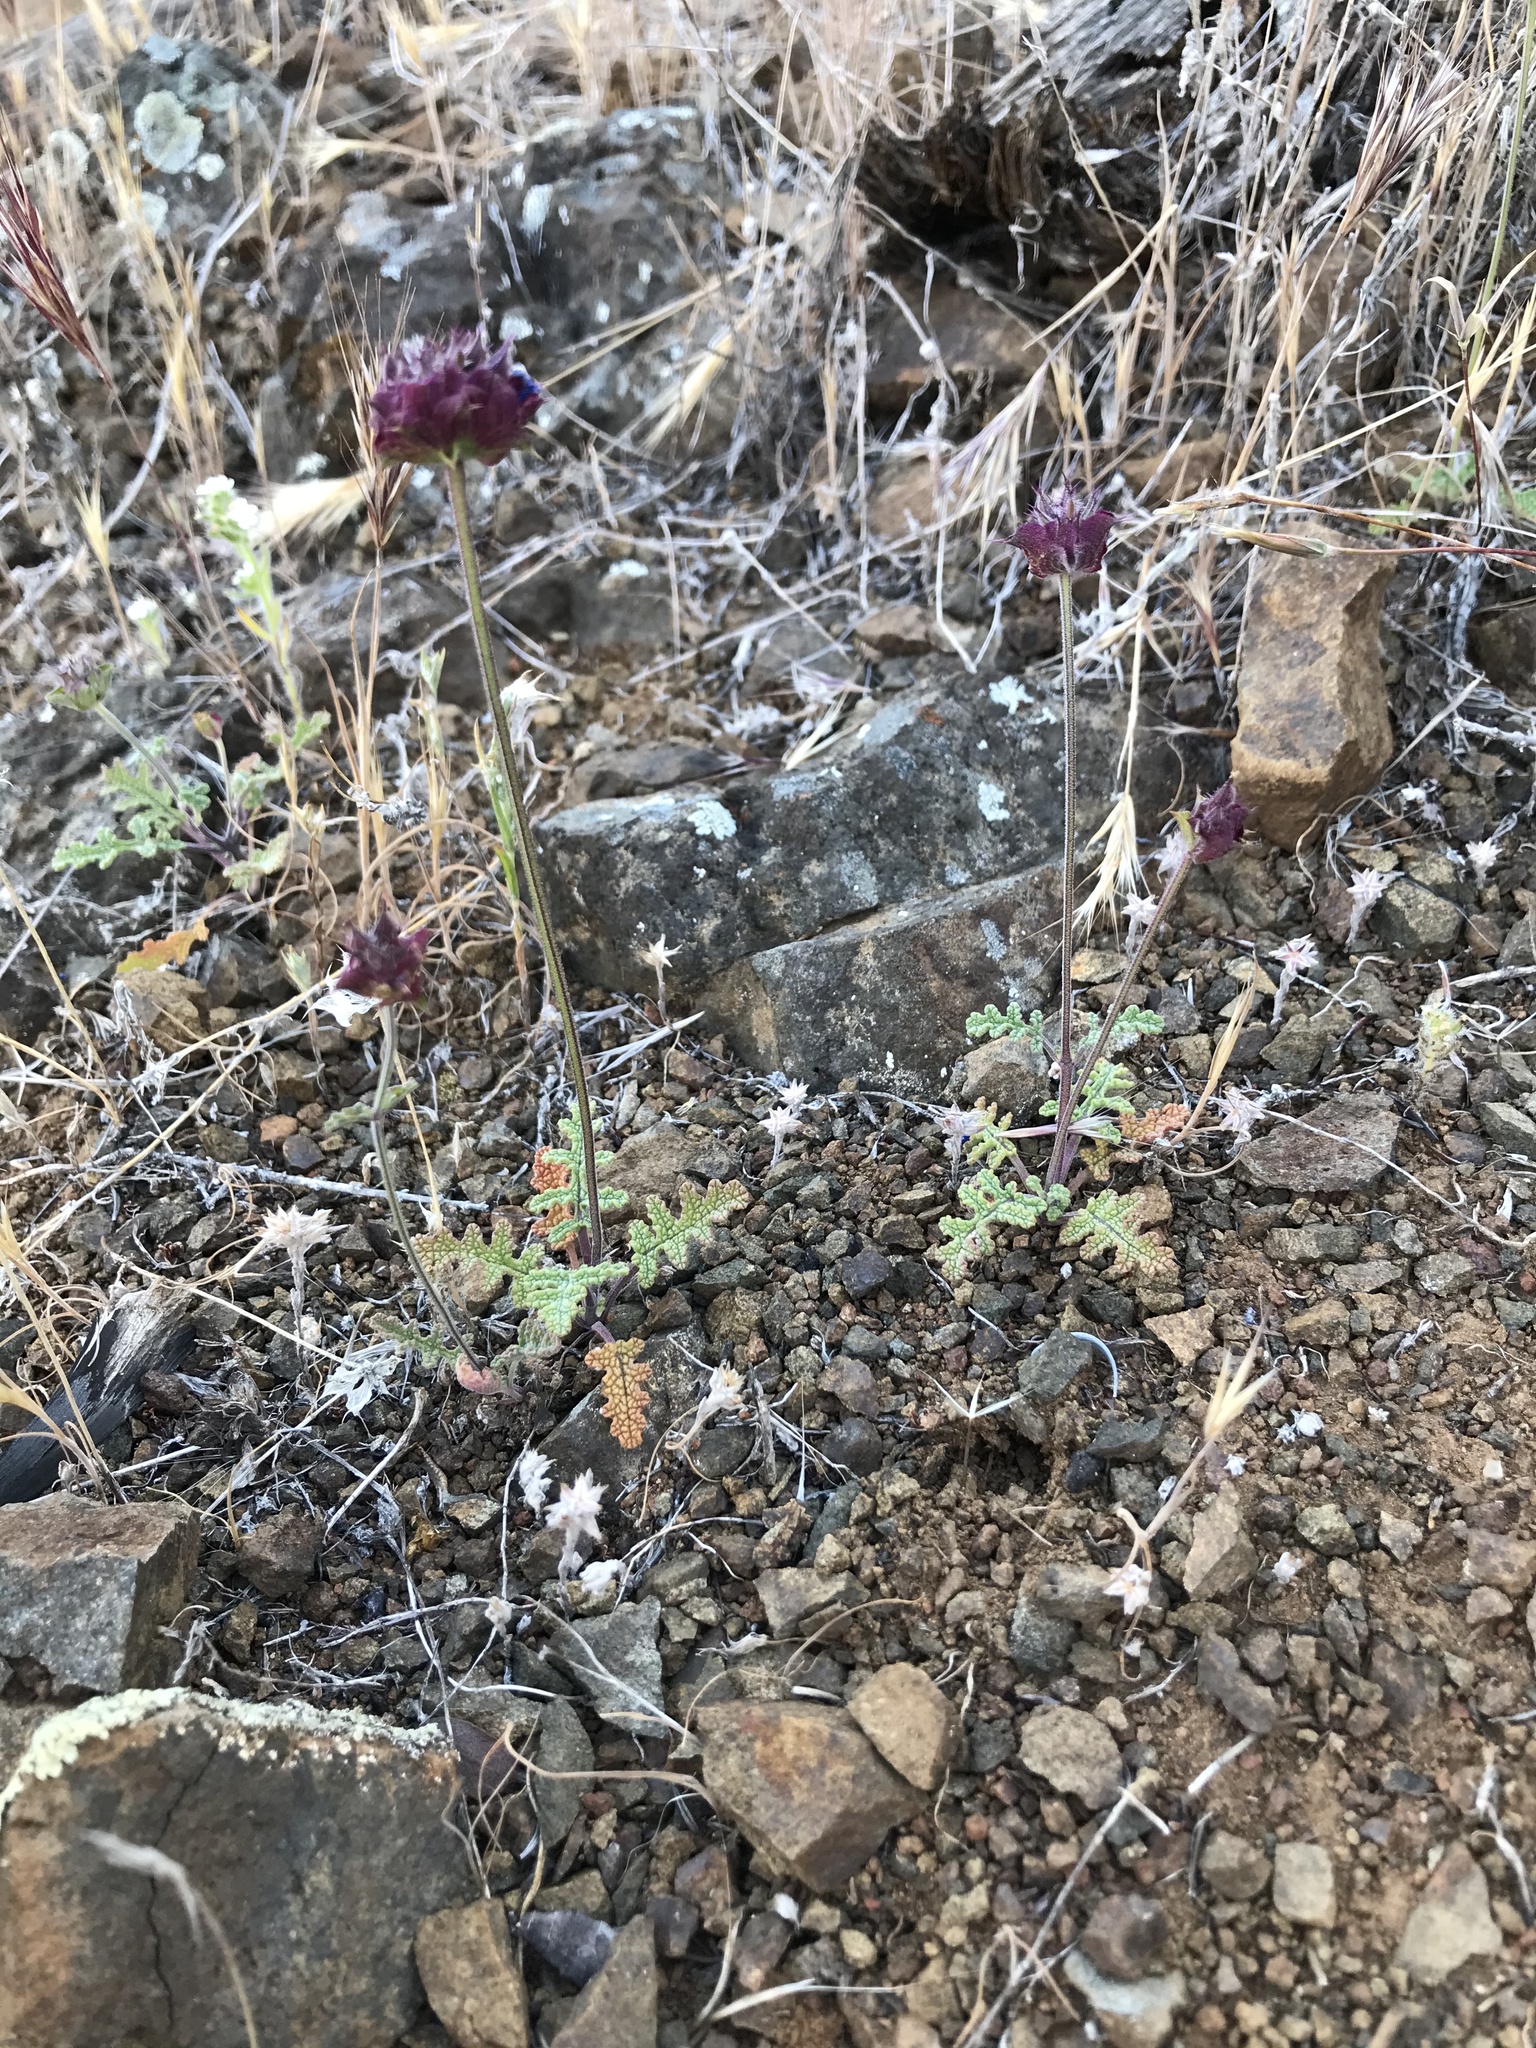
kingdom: Plantae
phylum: Tracheophyta
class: Magnoliopsida
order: Lamiales
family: Lamiaceae
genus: Salvia
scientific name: Salvia columbariae
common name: Chia
